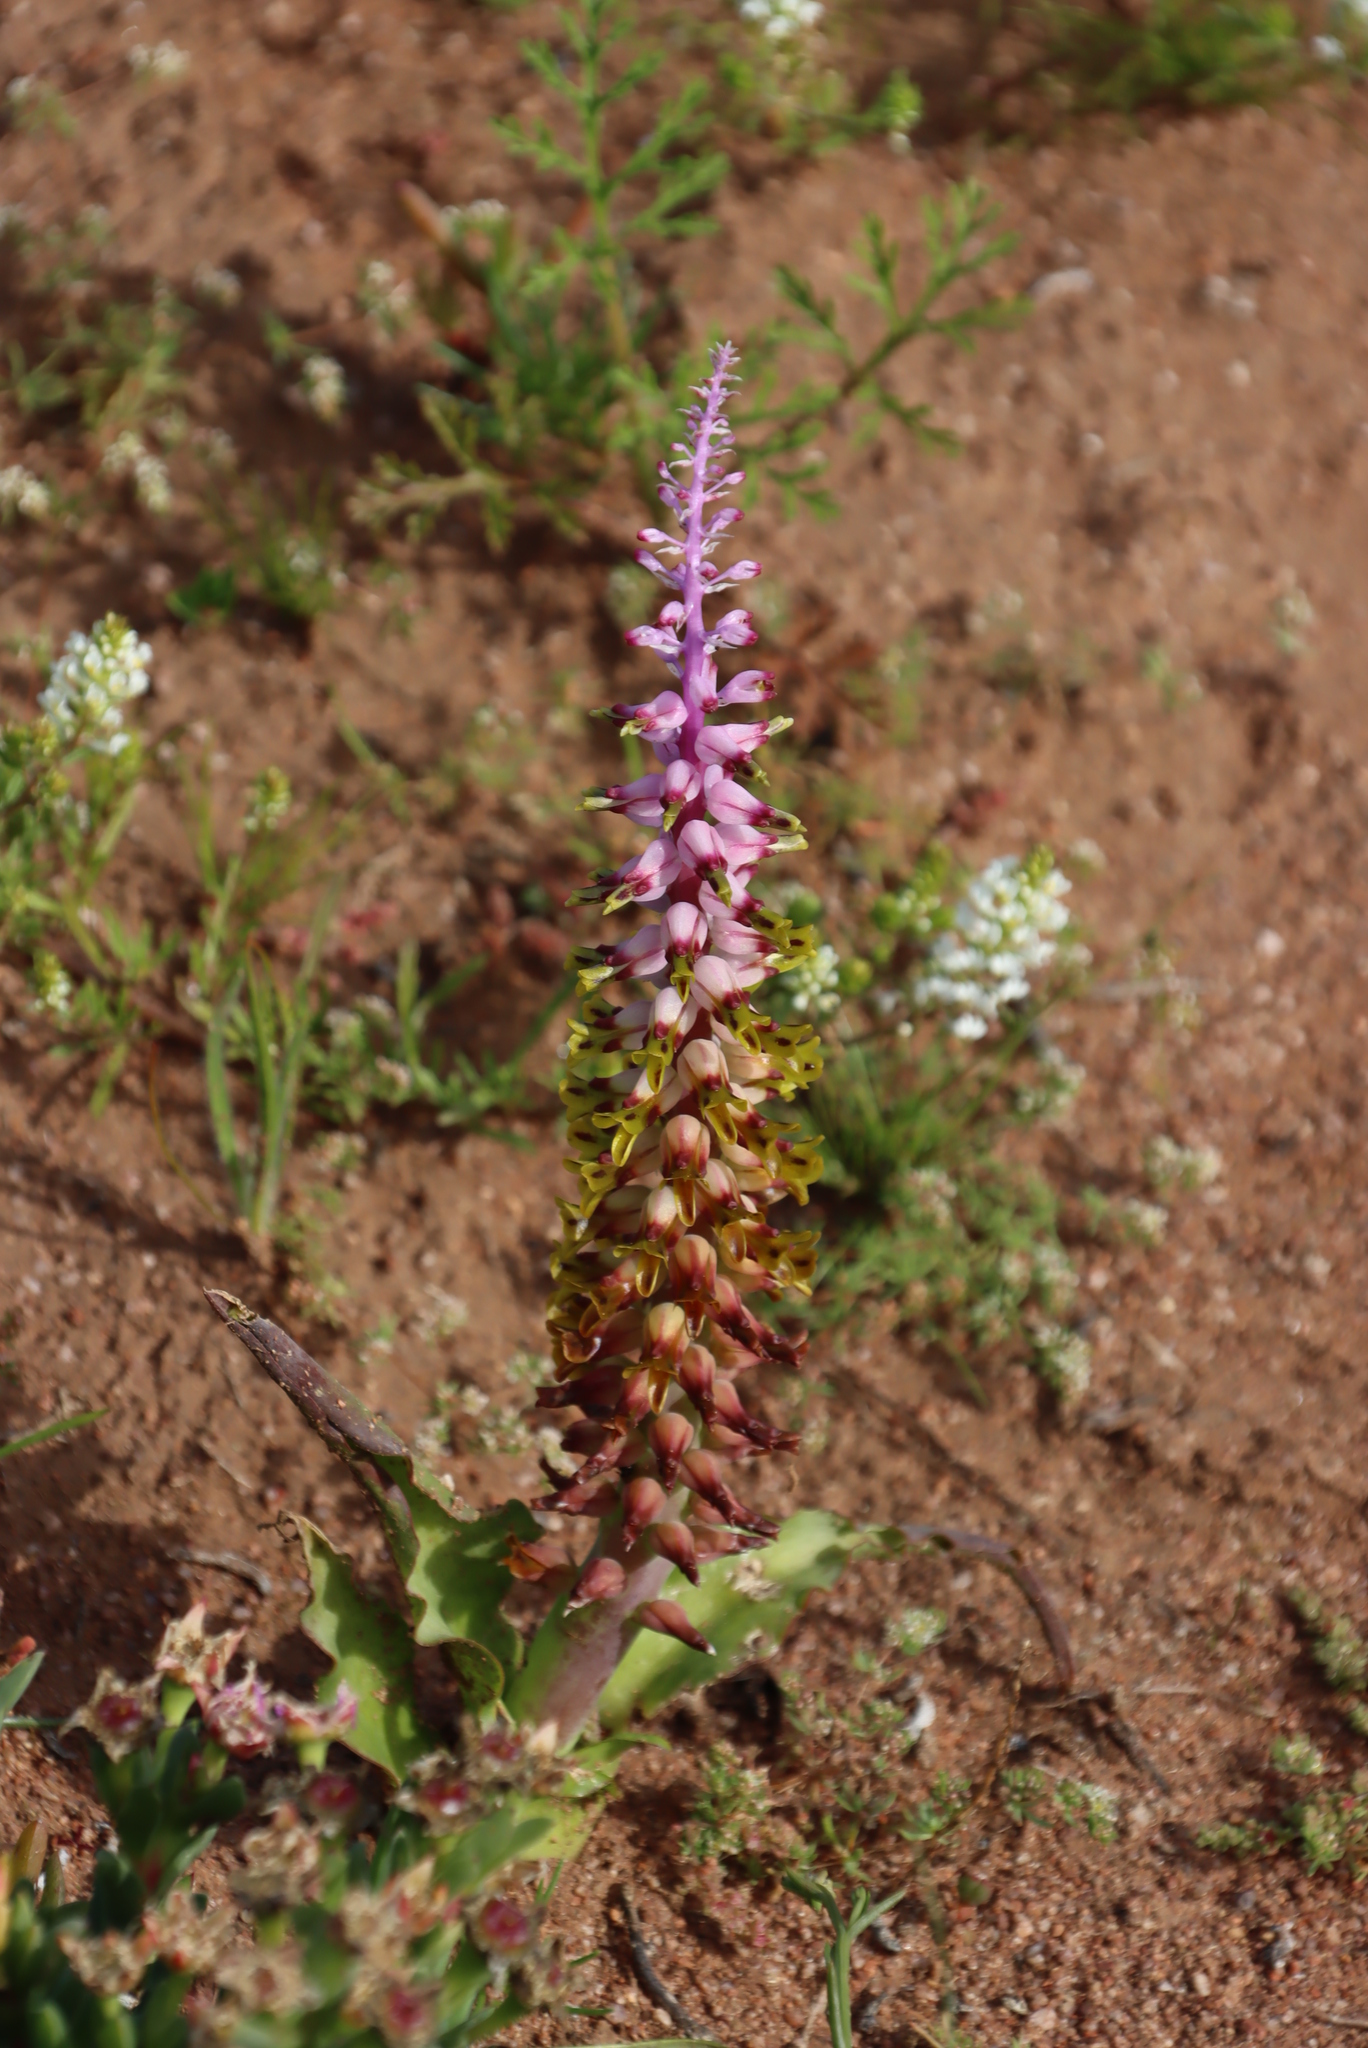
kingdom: Plantae
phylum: Tracheophyta
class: Liliopsida
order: Asparagales
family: Asparagaceae
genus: Lachenalia
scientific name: Lachenalia mutabilis
